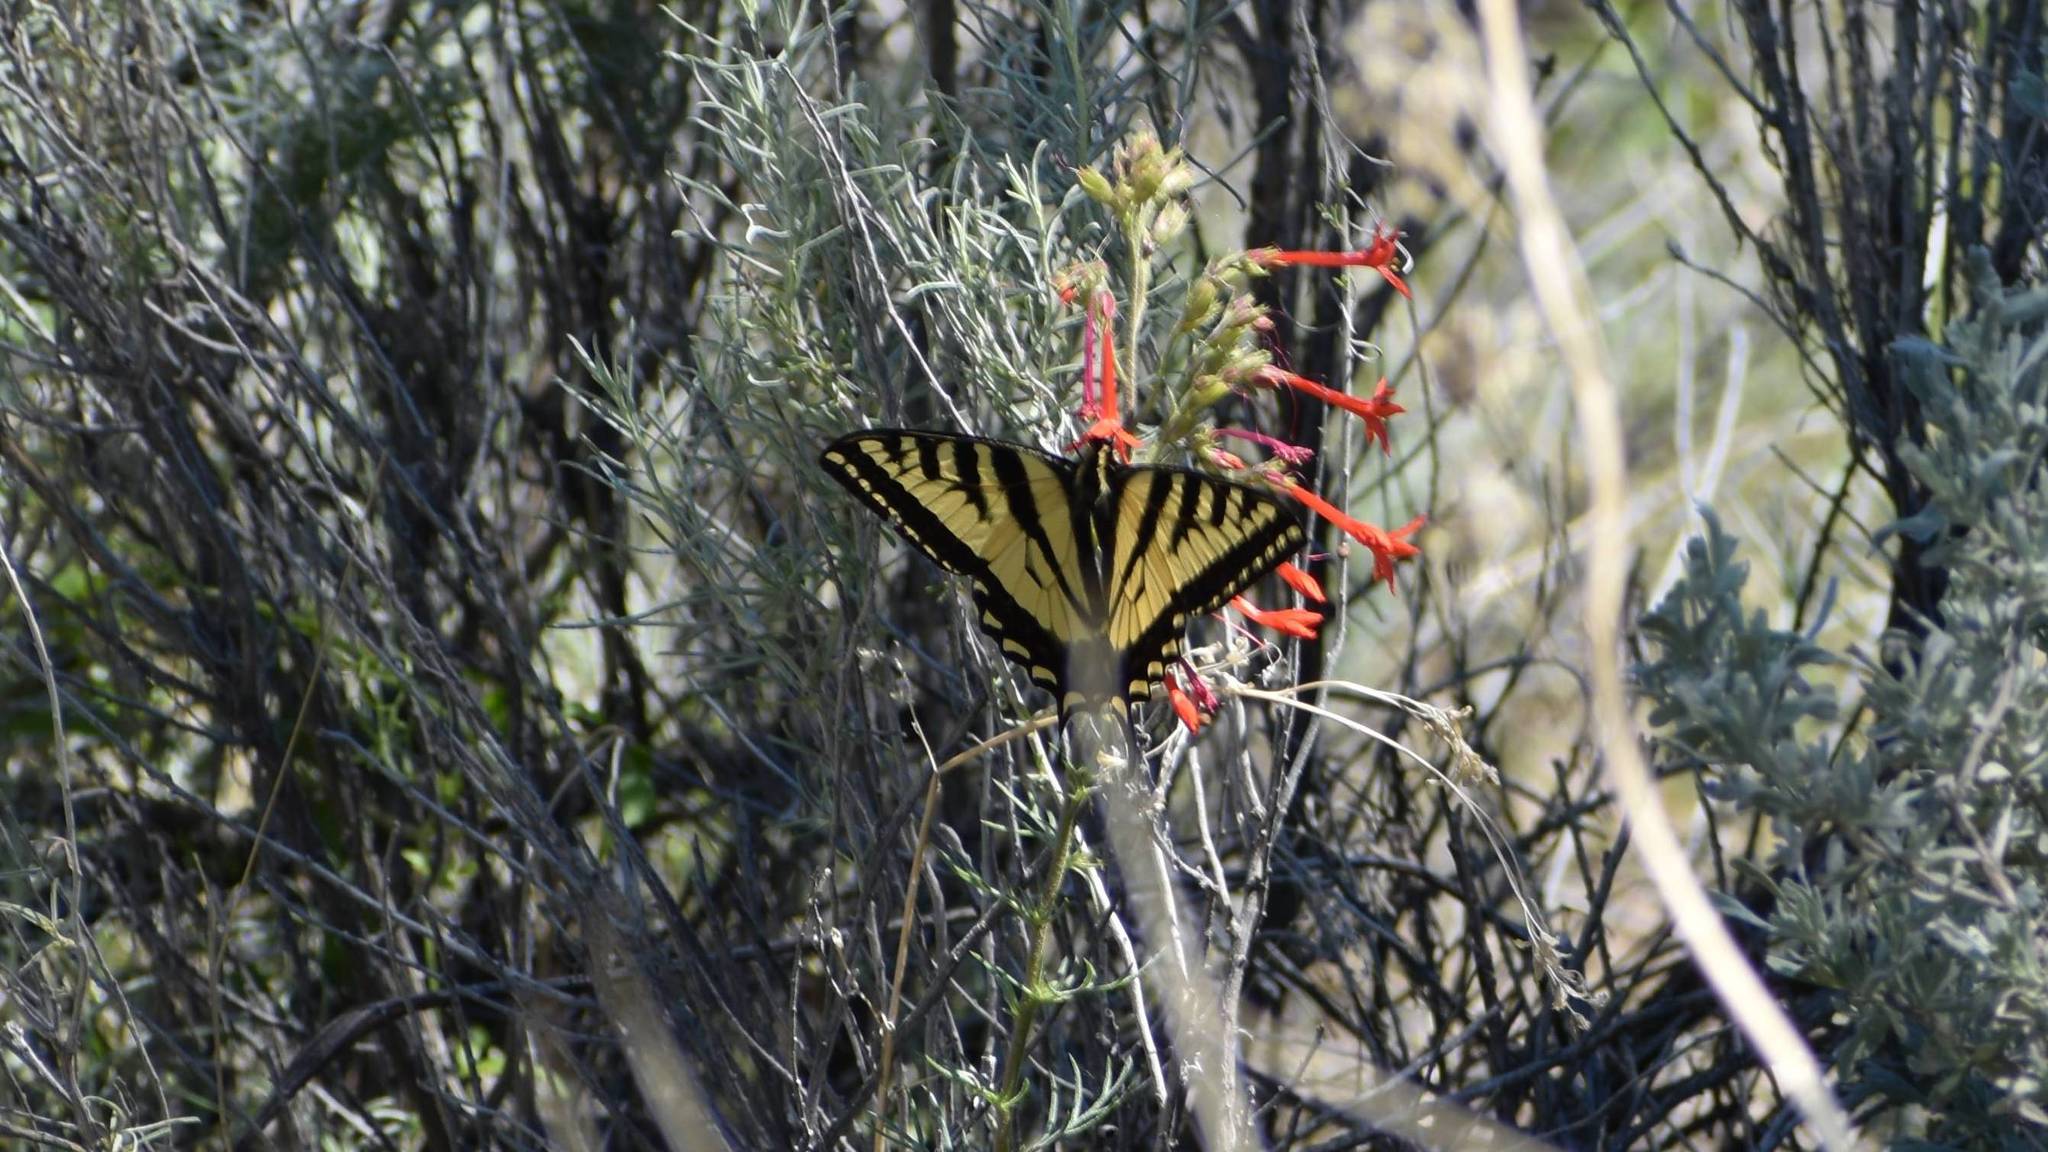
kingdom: Animalia
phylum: Arthropoda
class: Insecta
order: Lepidoptera
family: Papilionidae
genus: Papilio
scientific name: Papilio rutulus
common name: Western tiger swallowtail
